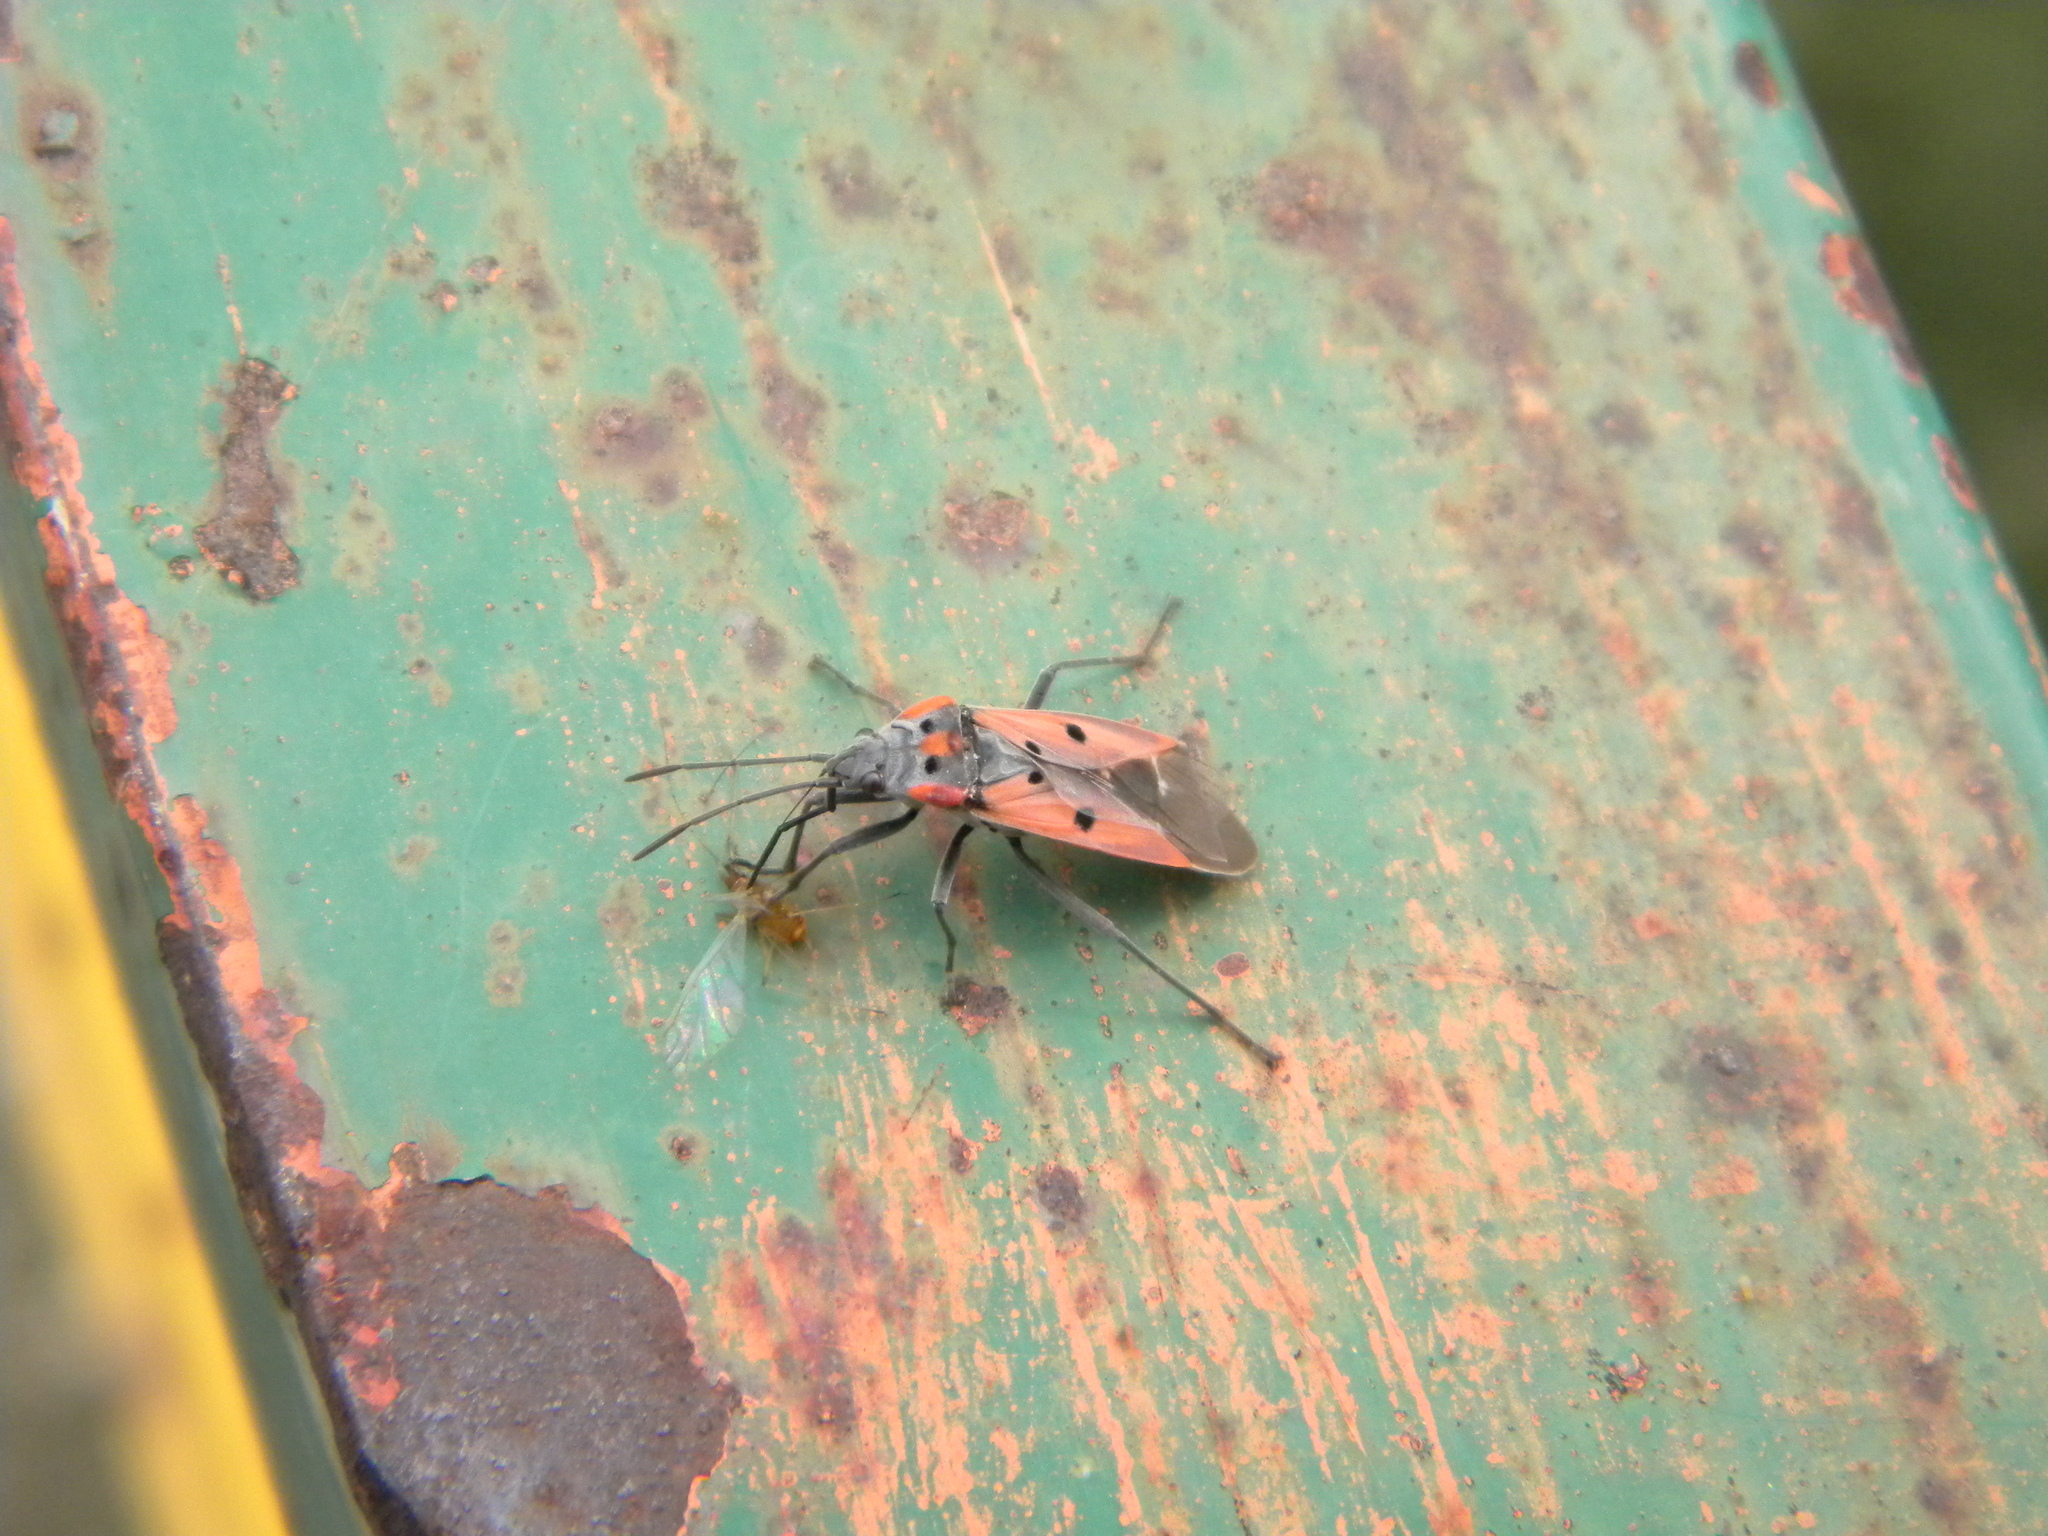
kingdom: Animalia
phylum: Arthropoda
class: Insecta
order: Hemiptera
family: Lygaeidae
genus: Lygaeus
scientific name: Lygaeus creticus
